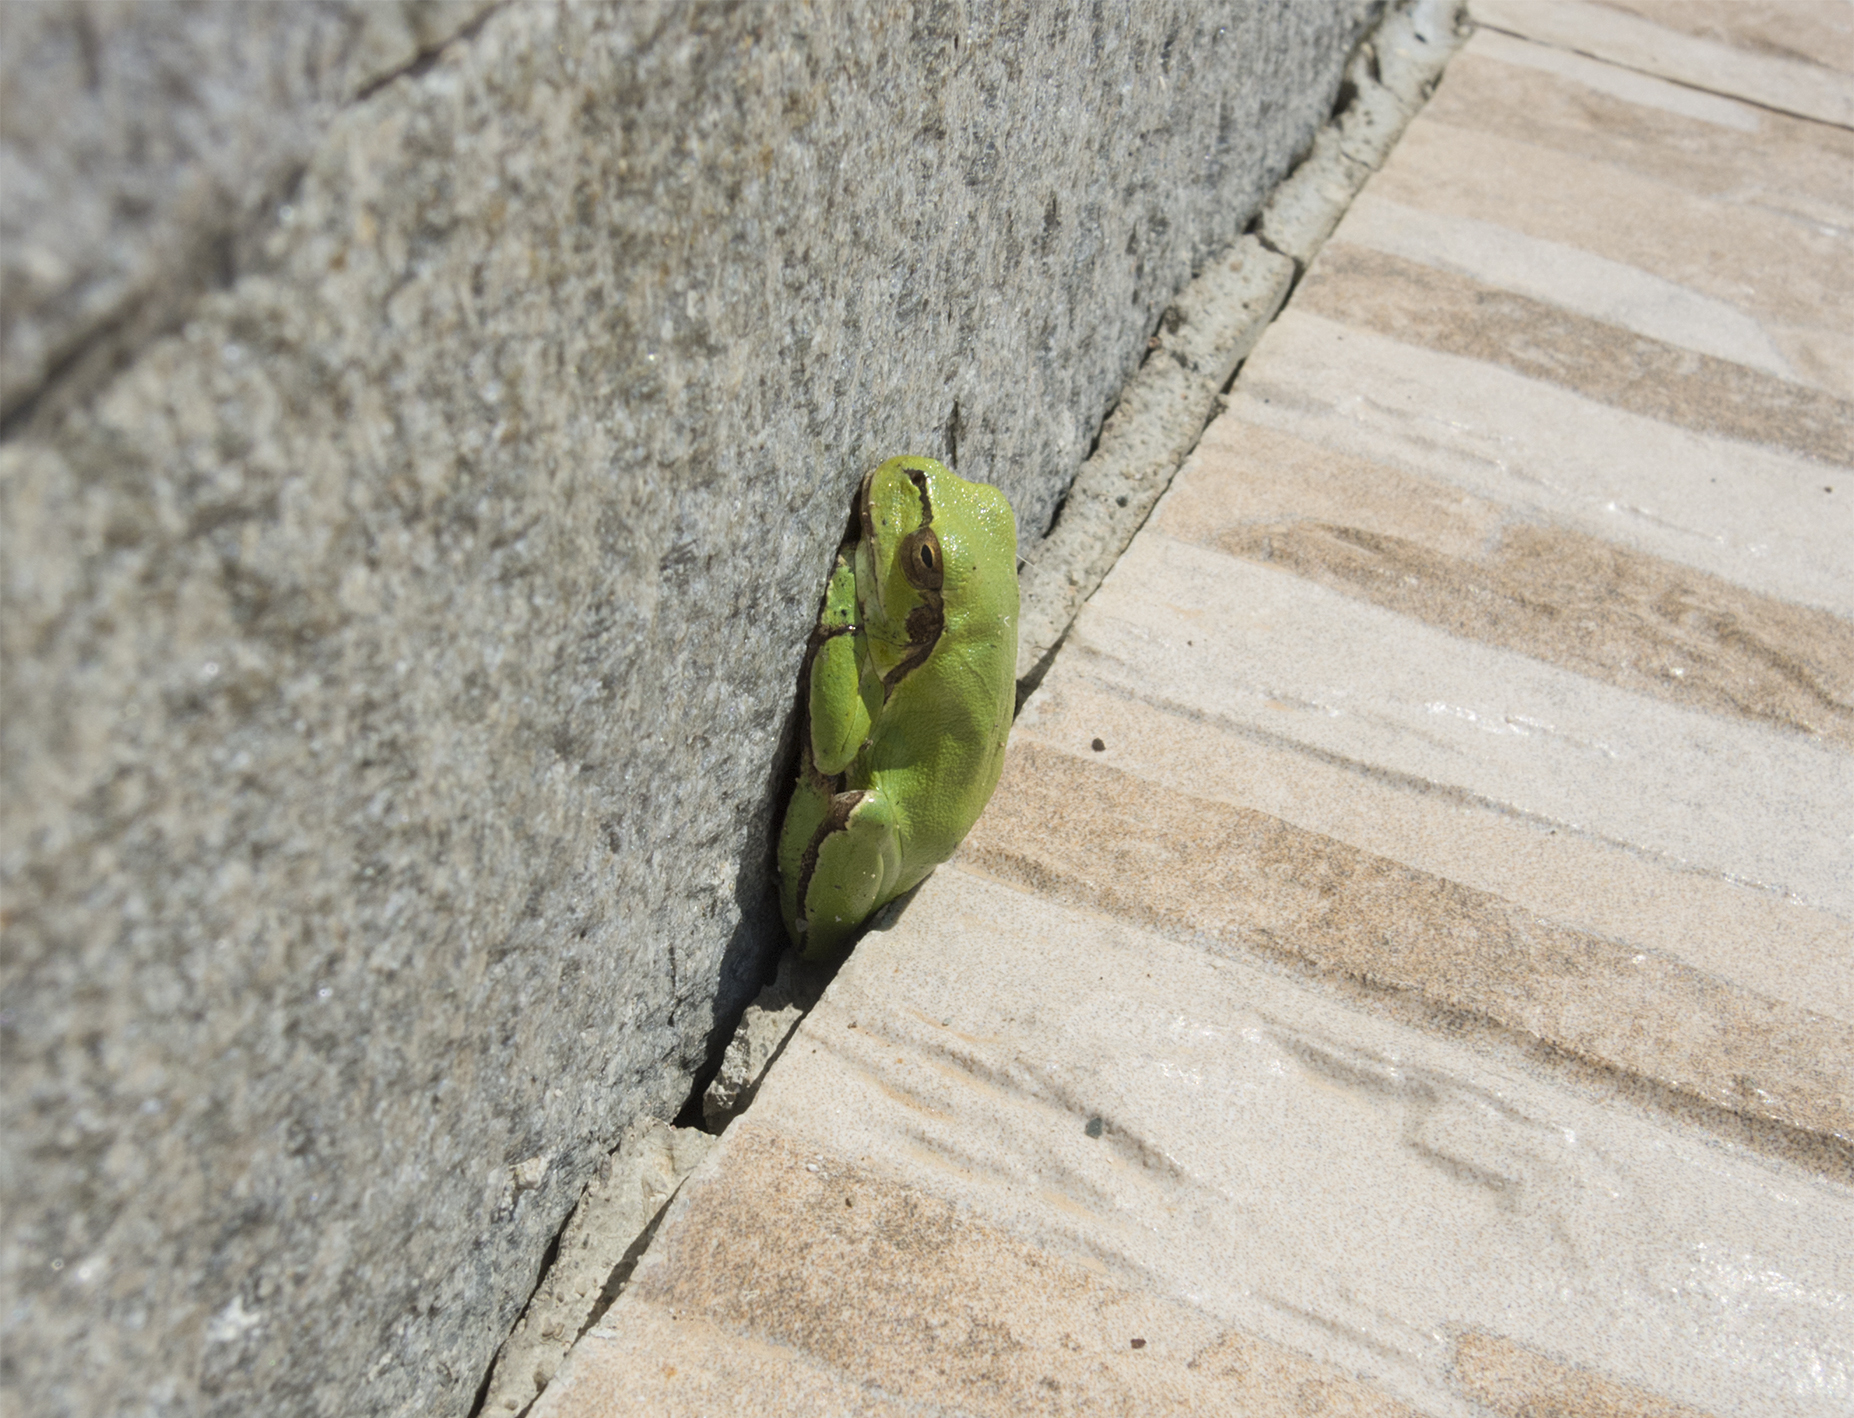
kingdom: Animalia
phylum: Chordata
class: Amphibia
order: Anura
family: Hylidae
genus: Hyla
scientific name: Hyla orientalis
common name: Caucasian treefrog
